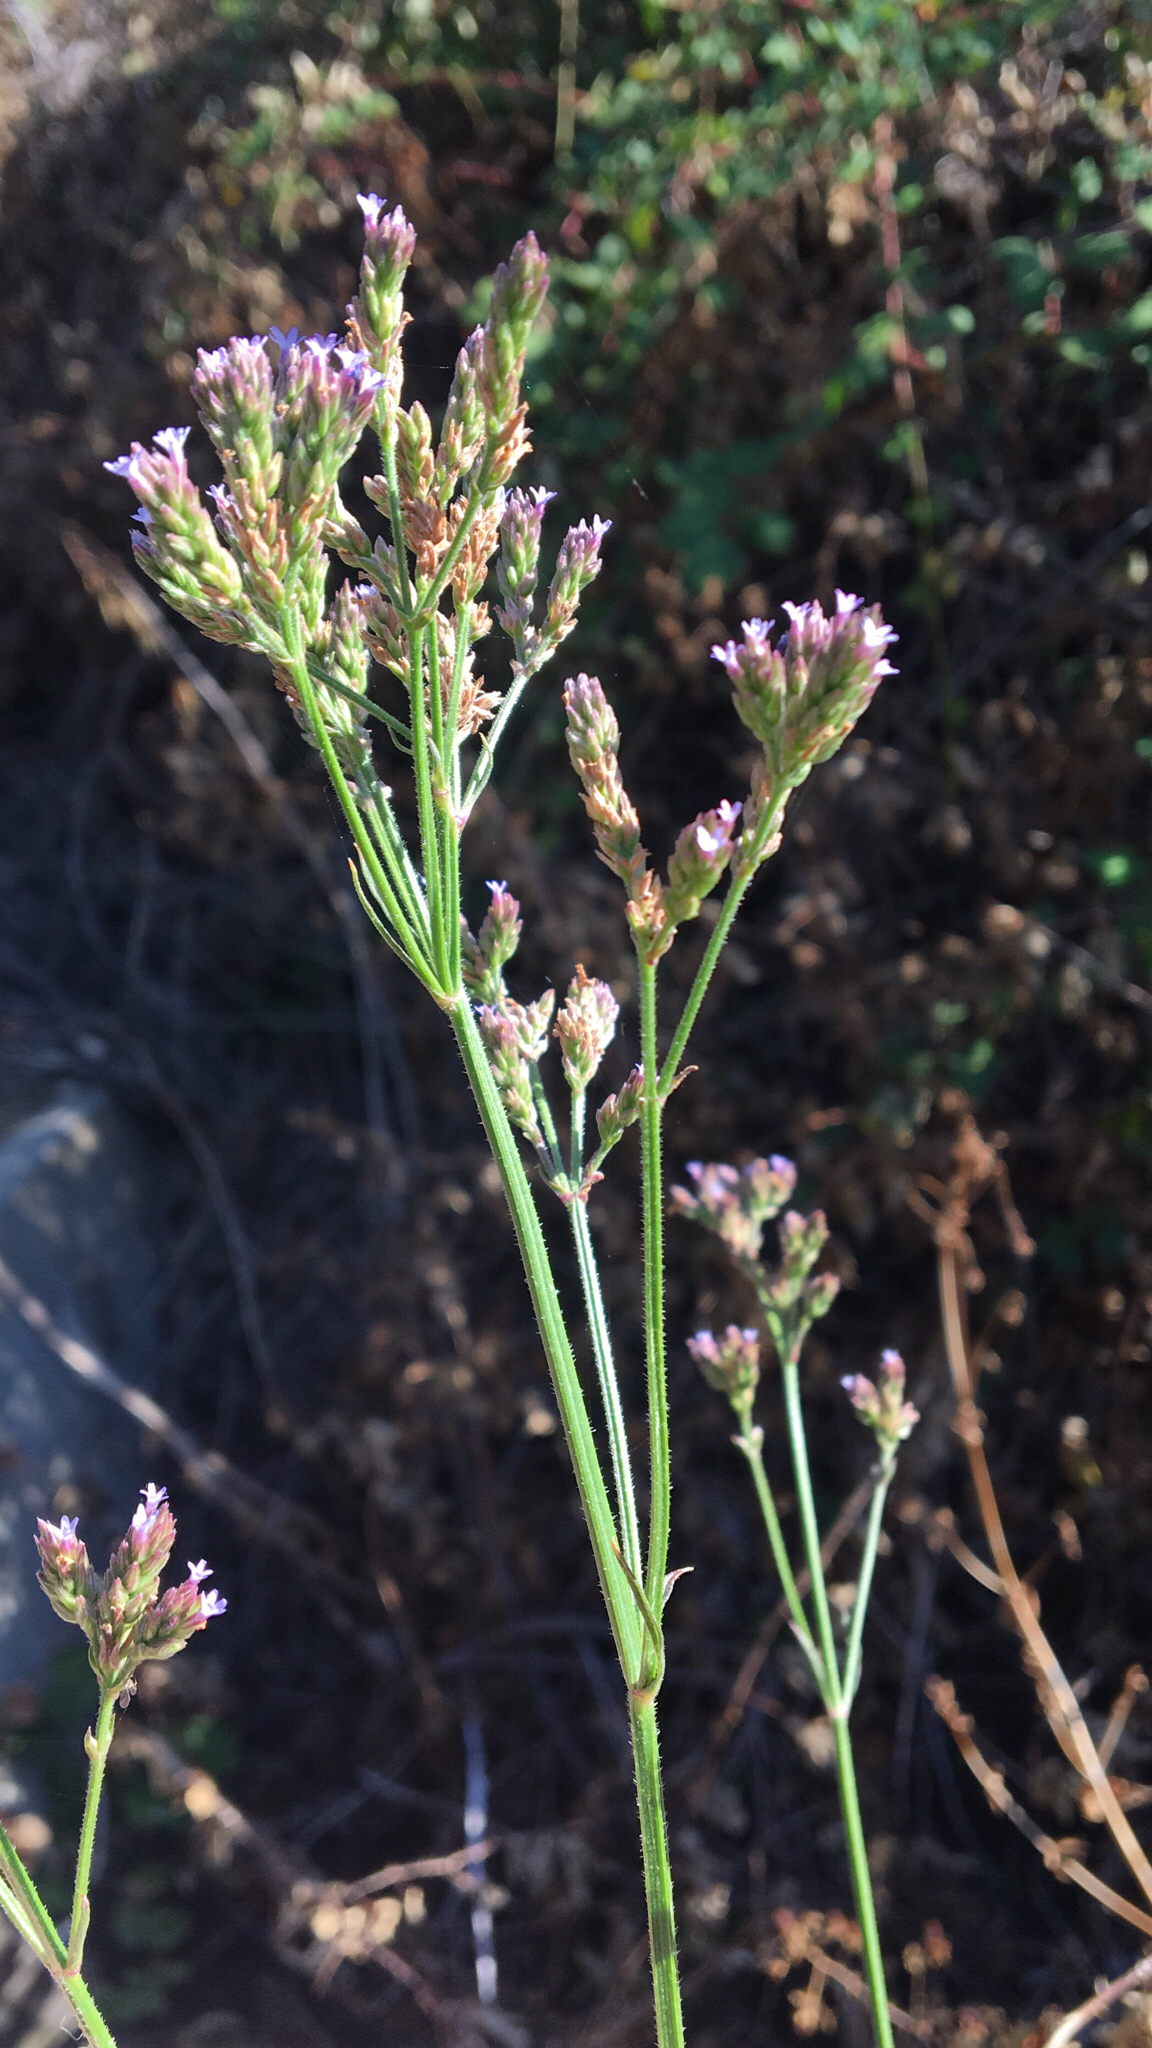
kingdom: Plantae
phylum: Tracheophyta
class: Magnoliopsida
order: Lamiales
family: Verbenaceae
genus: Verbena
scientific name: Verbena brasiliensis
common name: Brazilian vervain
